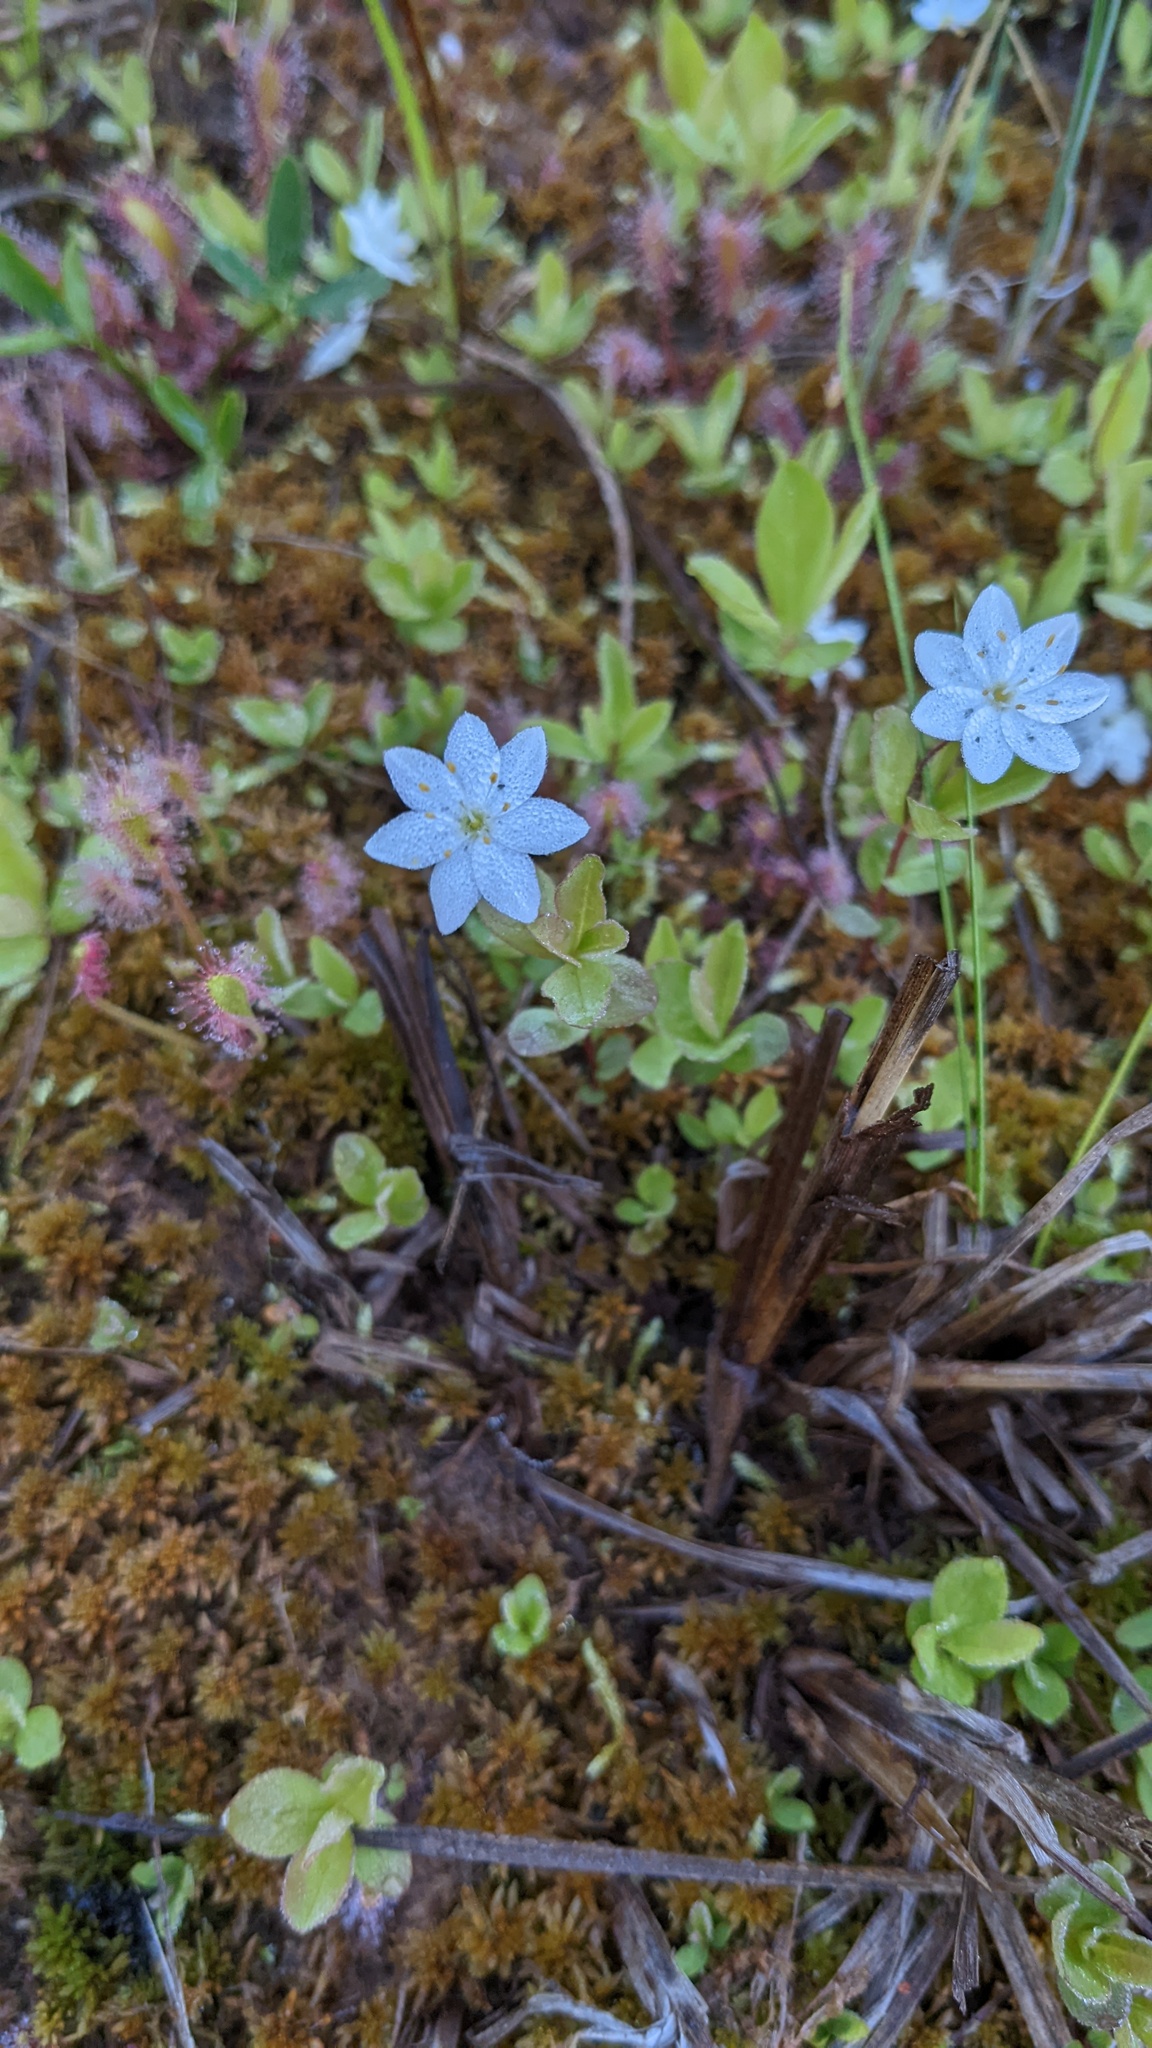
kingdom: Plantae
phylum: Tracheophyta
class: Magnoliopsida
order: Ericales
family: Primulaceae
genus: Lysimachia
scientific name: Lysimachia europaea
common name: Arctic starflower
